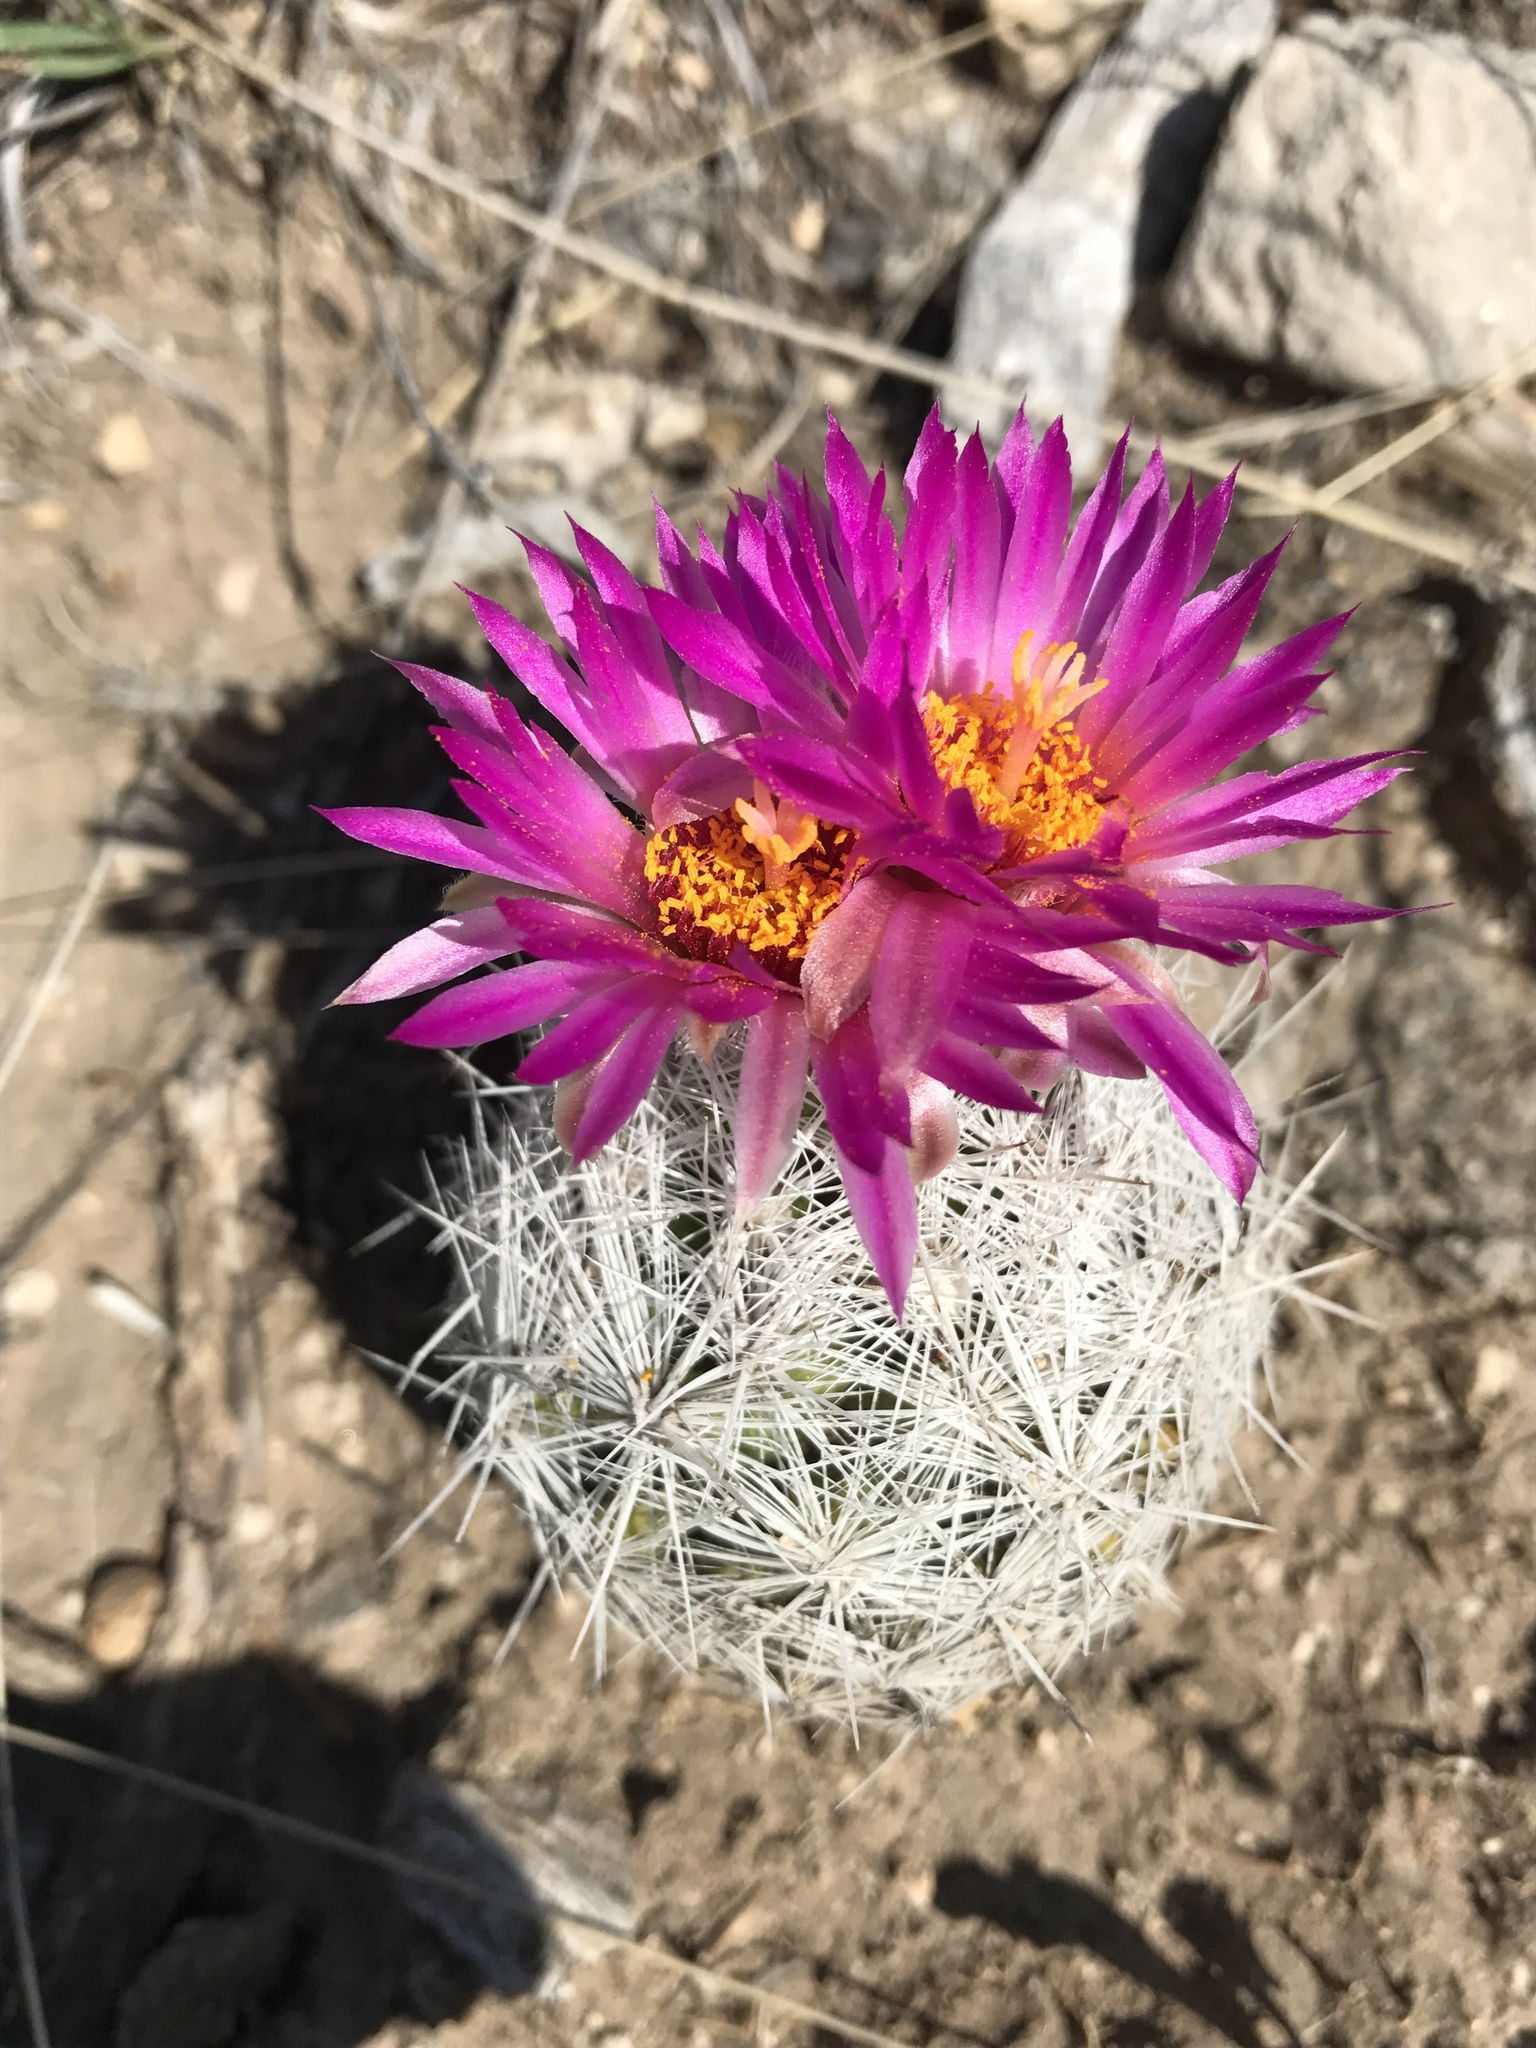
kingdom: Plantae
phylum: Tracheophyta
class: Magnoliopsida
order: Caryophyllales
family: Cactaceae
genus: Pelecyphora
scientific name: Pelecyphora vivipara
